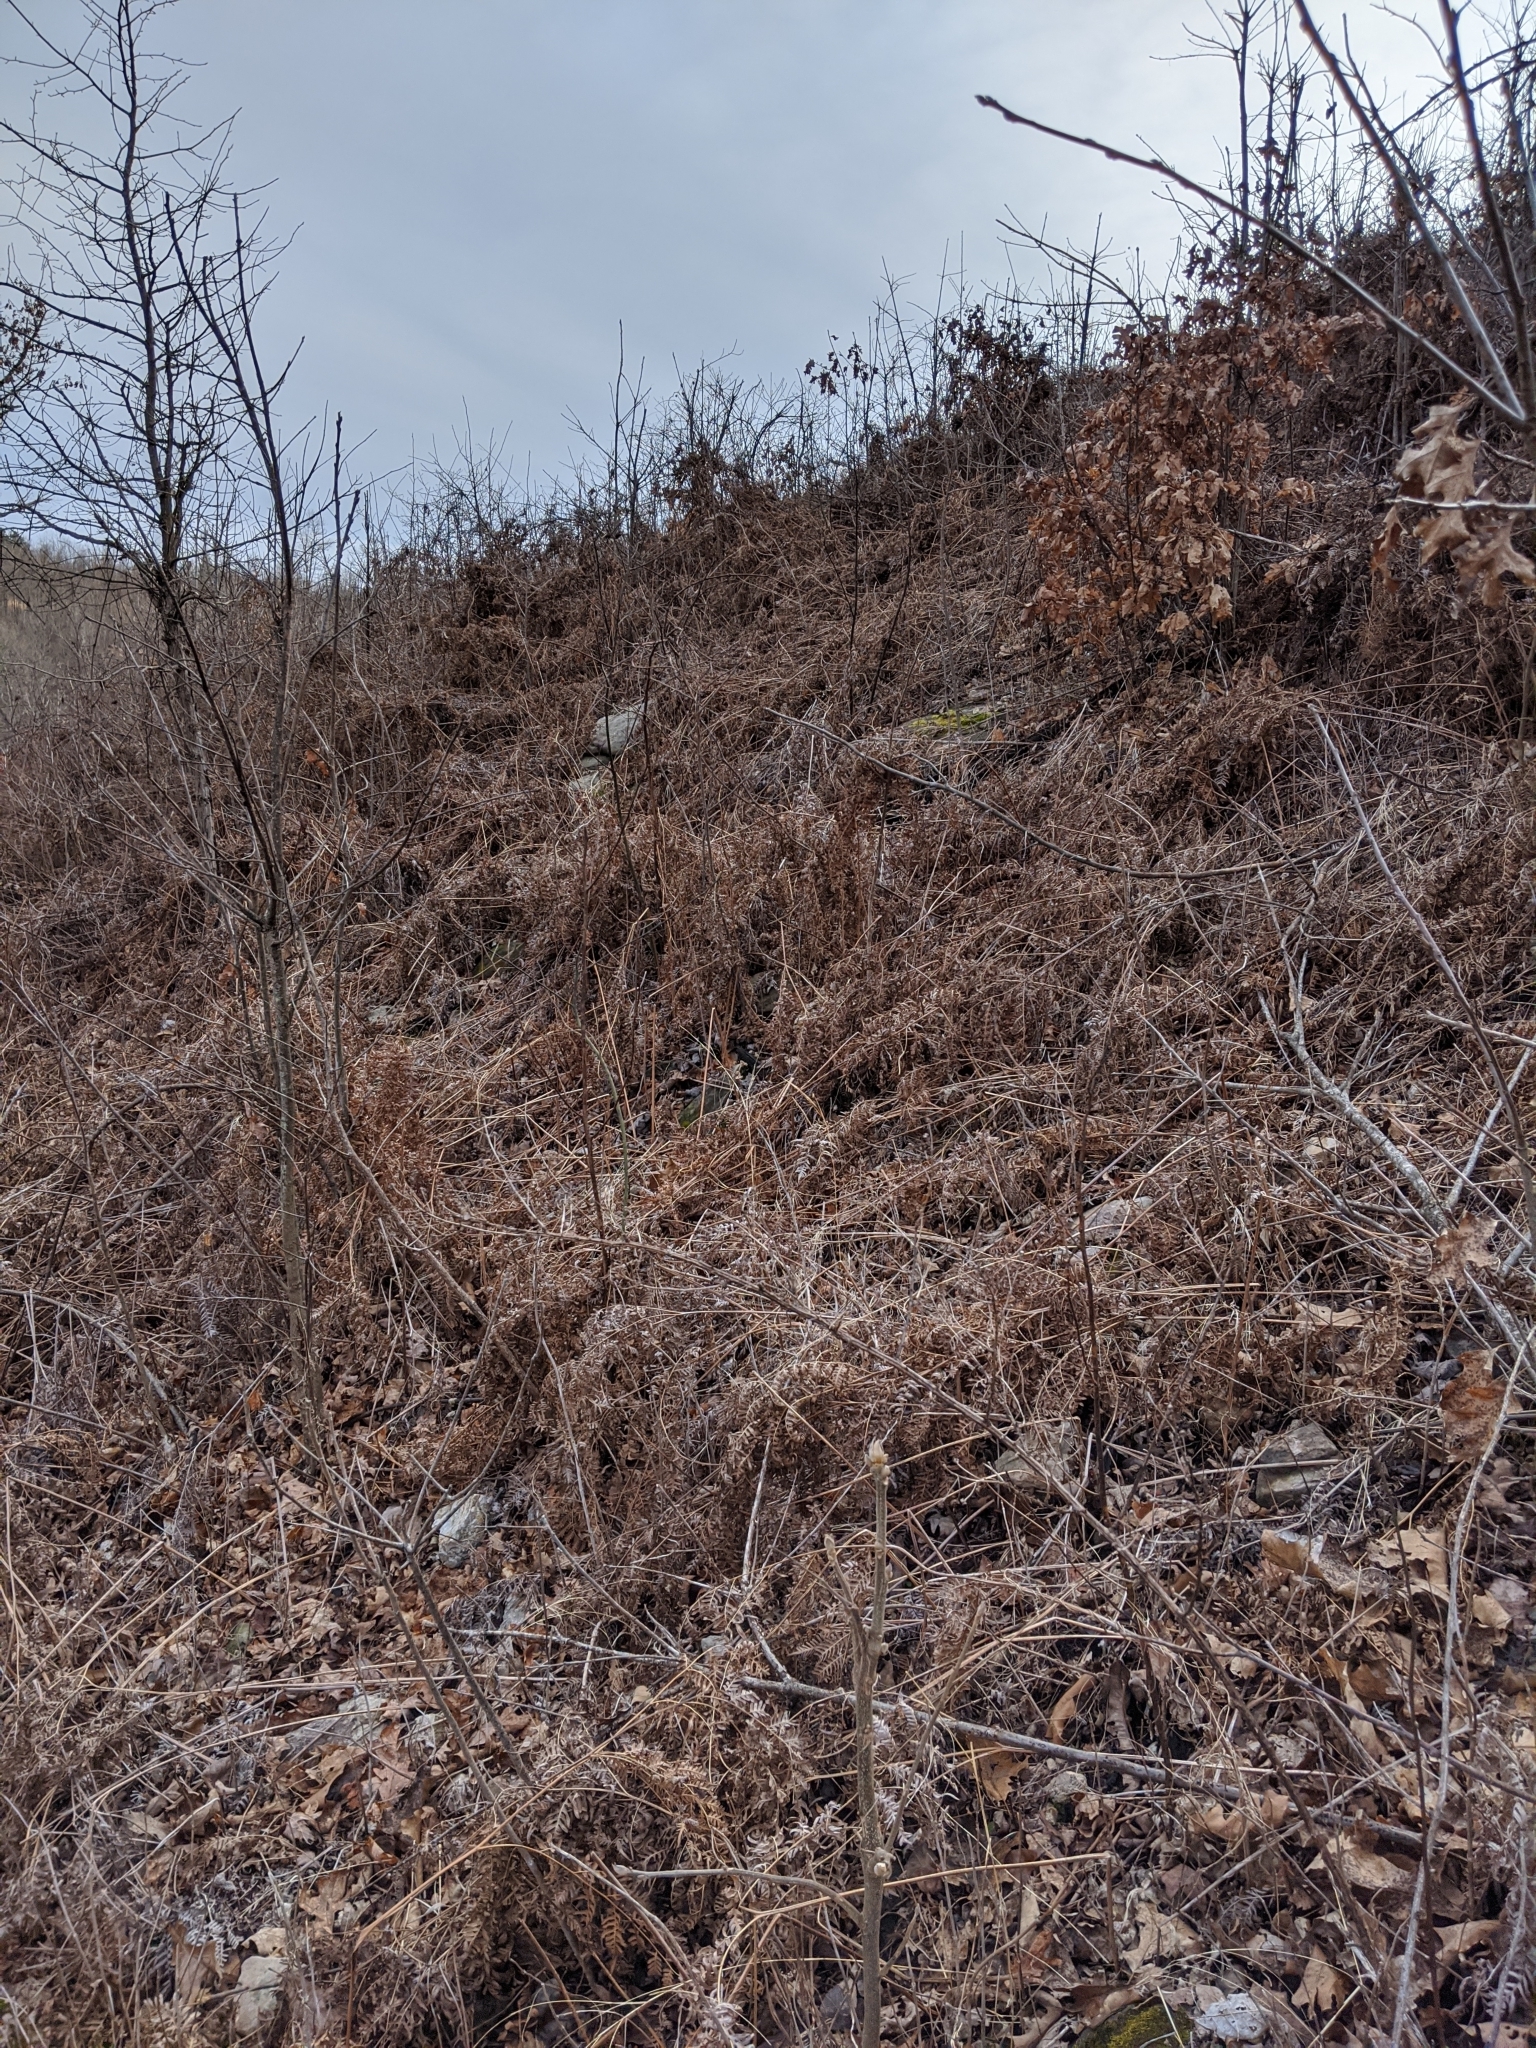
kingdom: Plantae
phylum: Tracheophyta
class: Polypodiopsida
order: Polypodiales
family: Dennstaedtiaceae
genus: Pteridium
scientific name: Pteridium
